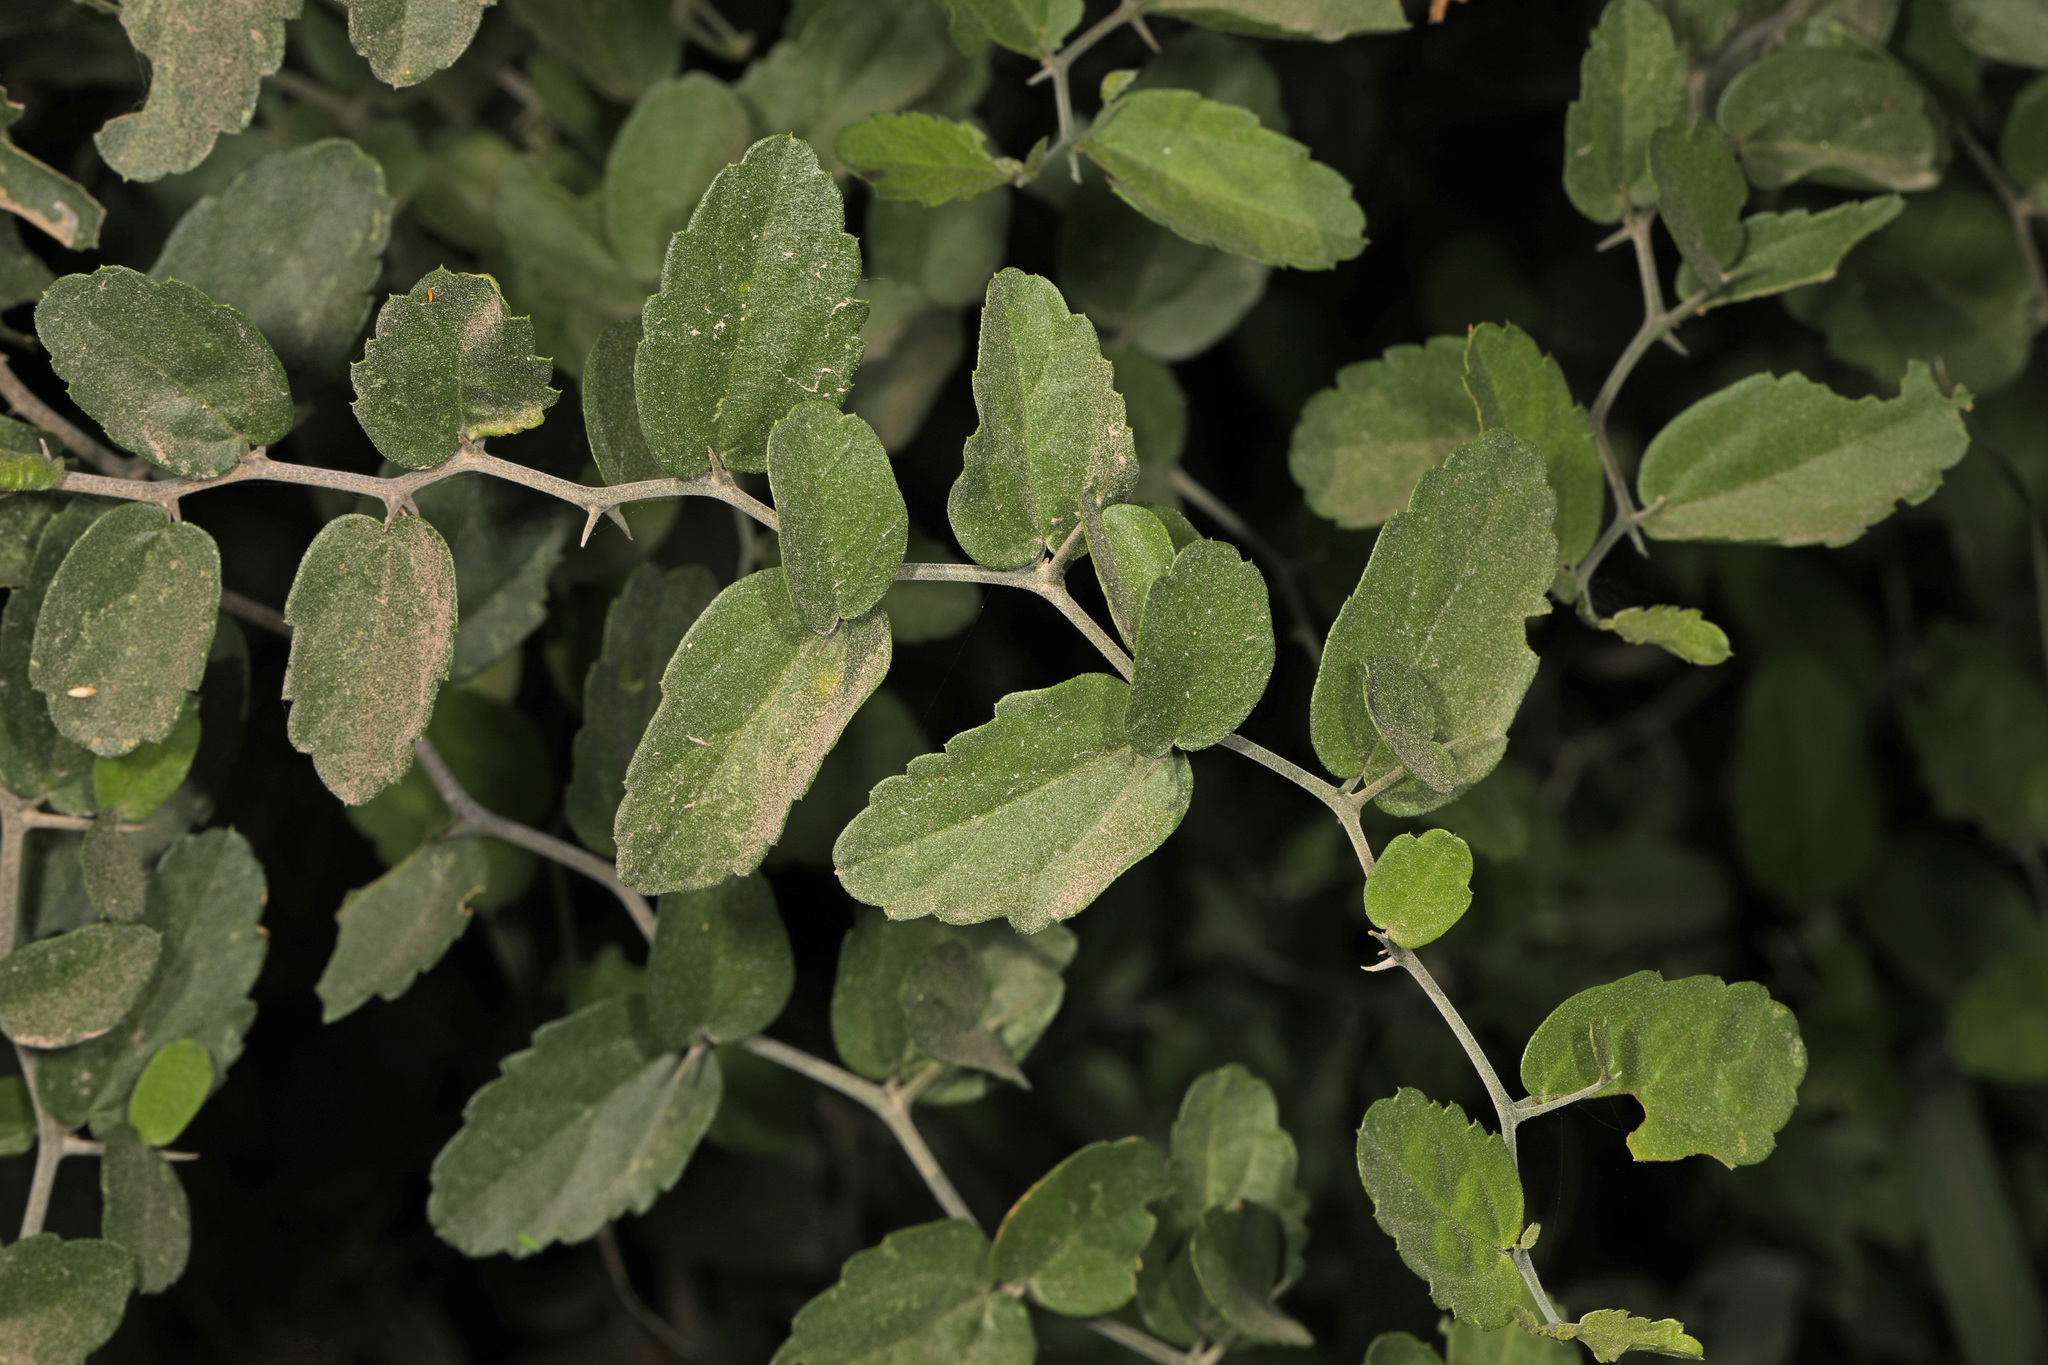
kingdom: Plantae
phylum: Tracheophyta
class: Magnoliopsida
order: Rosales
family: Cannabaceae
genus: Celtis
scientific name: Celtis pallida
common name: Desert hackberry
